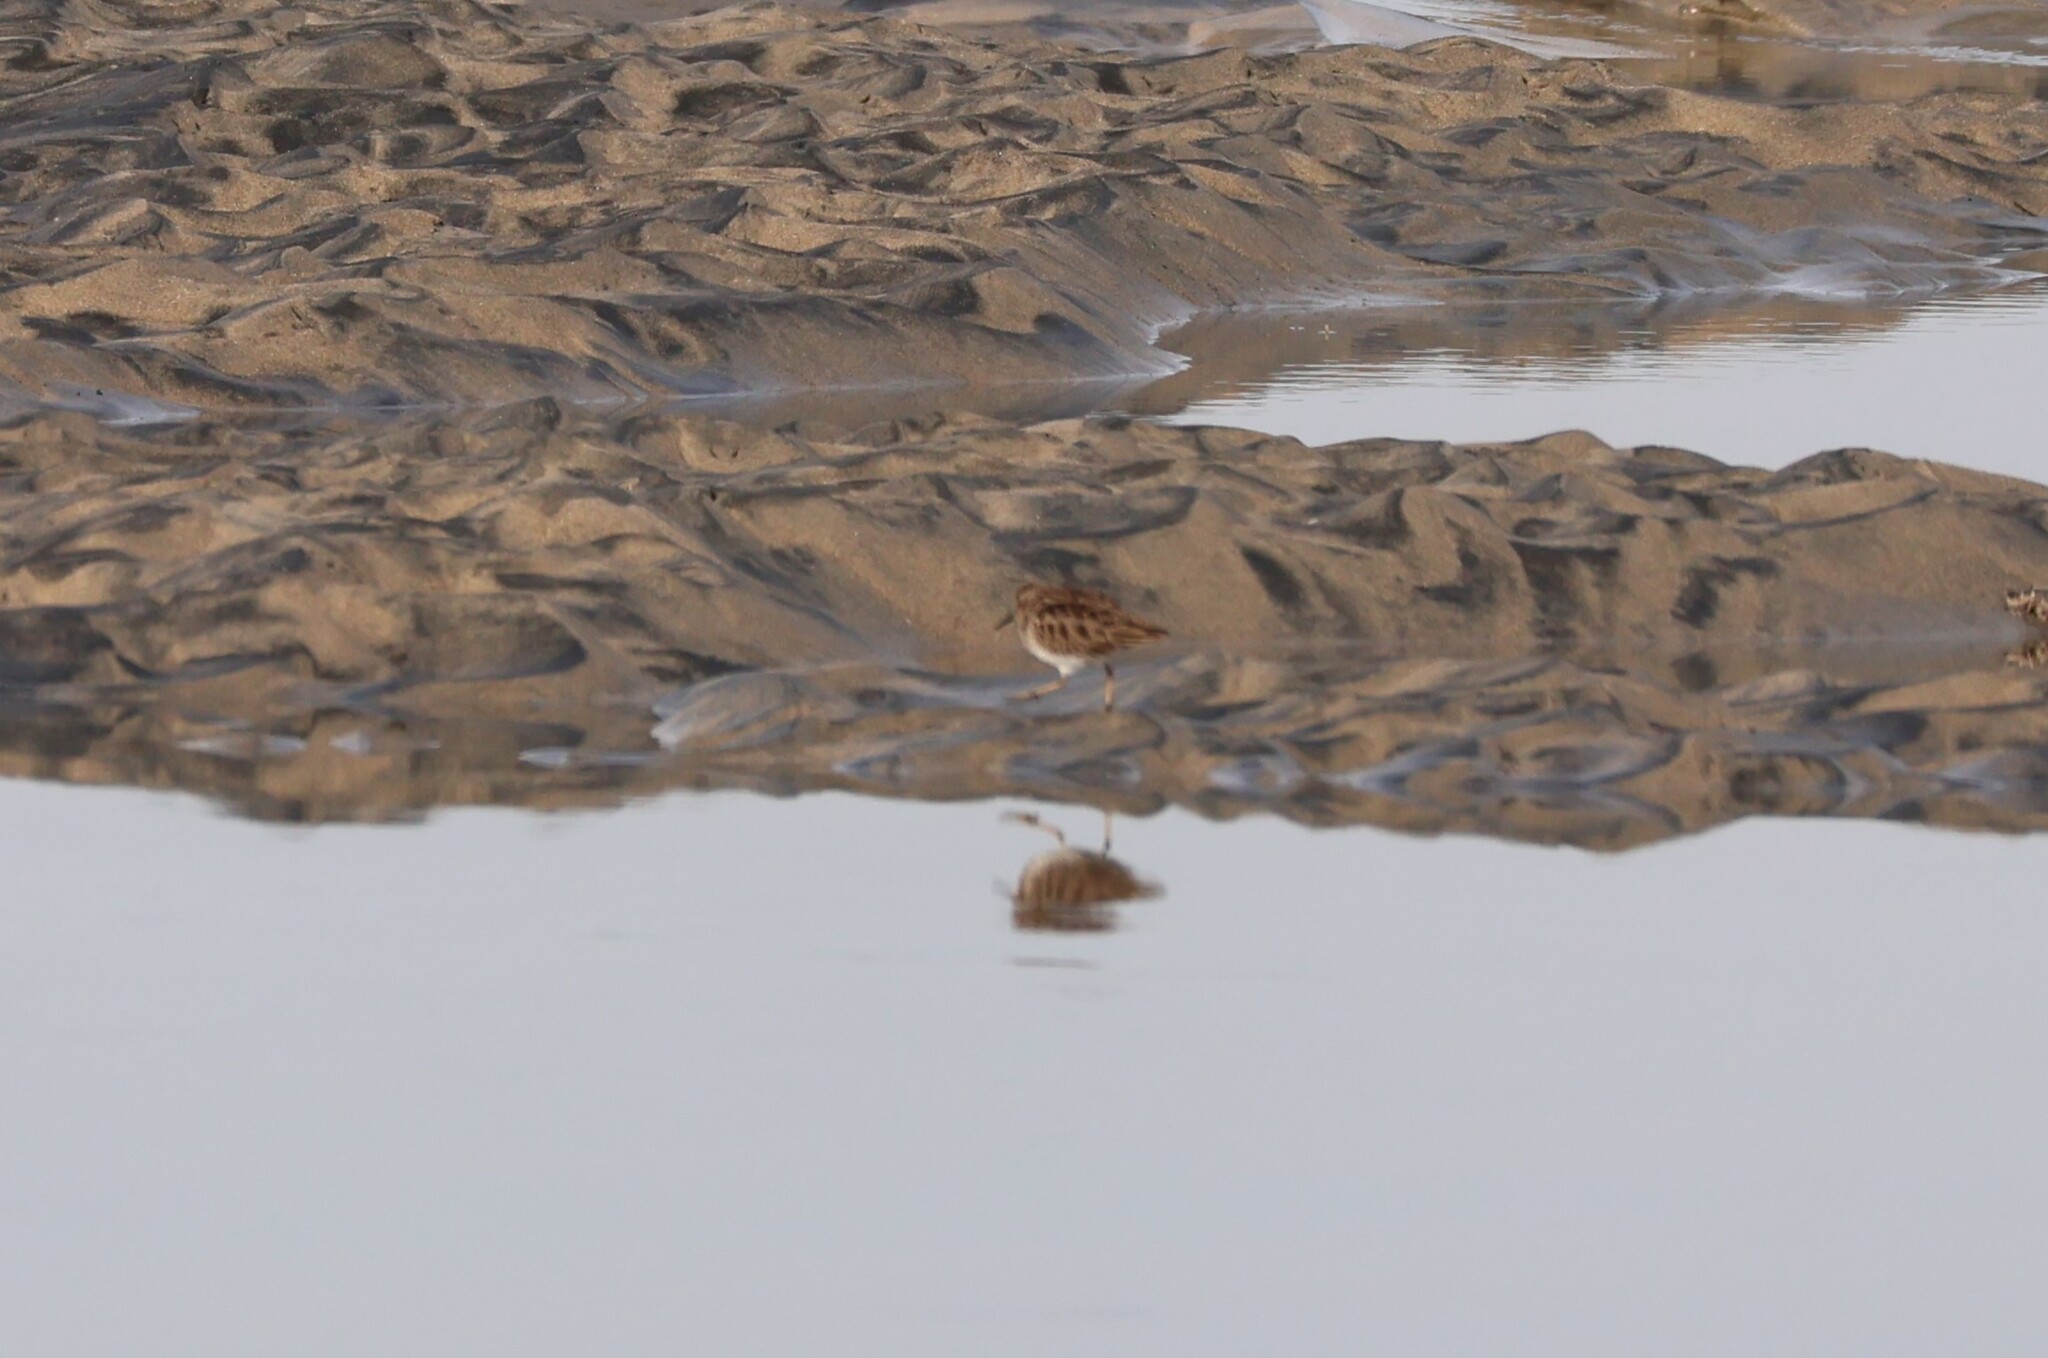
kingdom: Animalia
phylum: Chordata
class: Aves
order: Charadriiformes
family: Scolopacidae
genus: Calidris
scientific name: Calidris minutilla
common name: Least sandpiper
